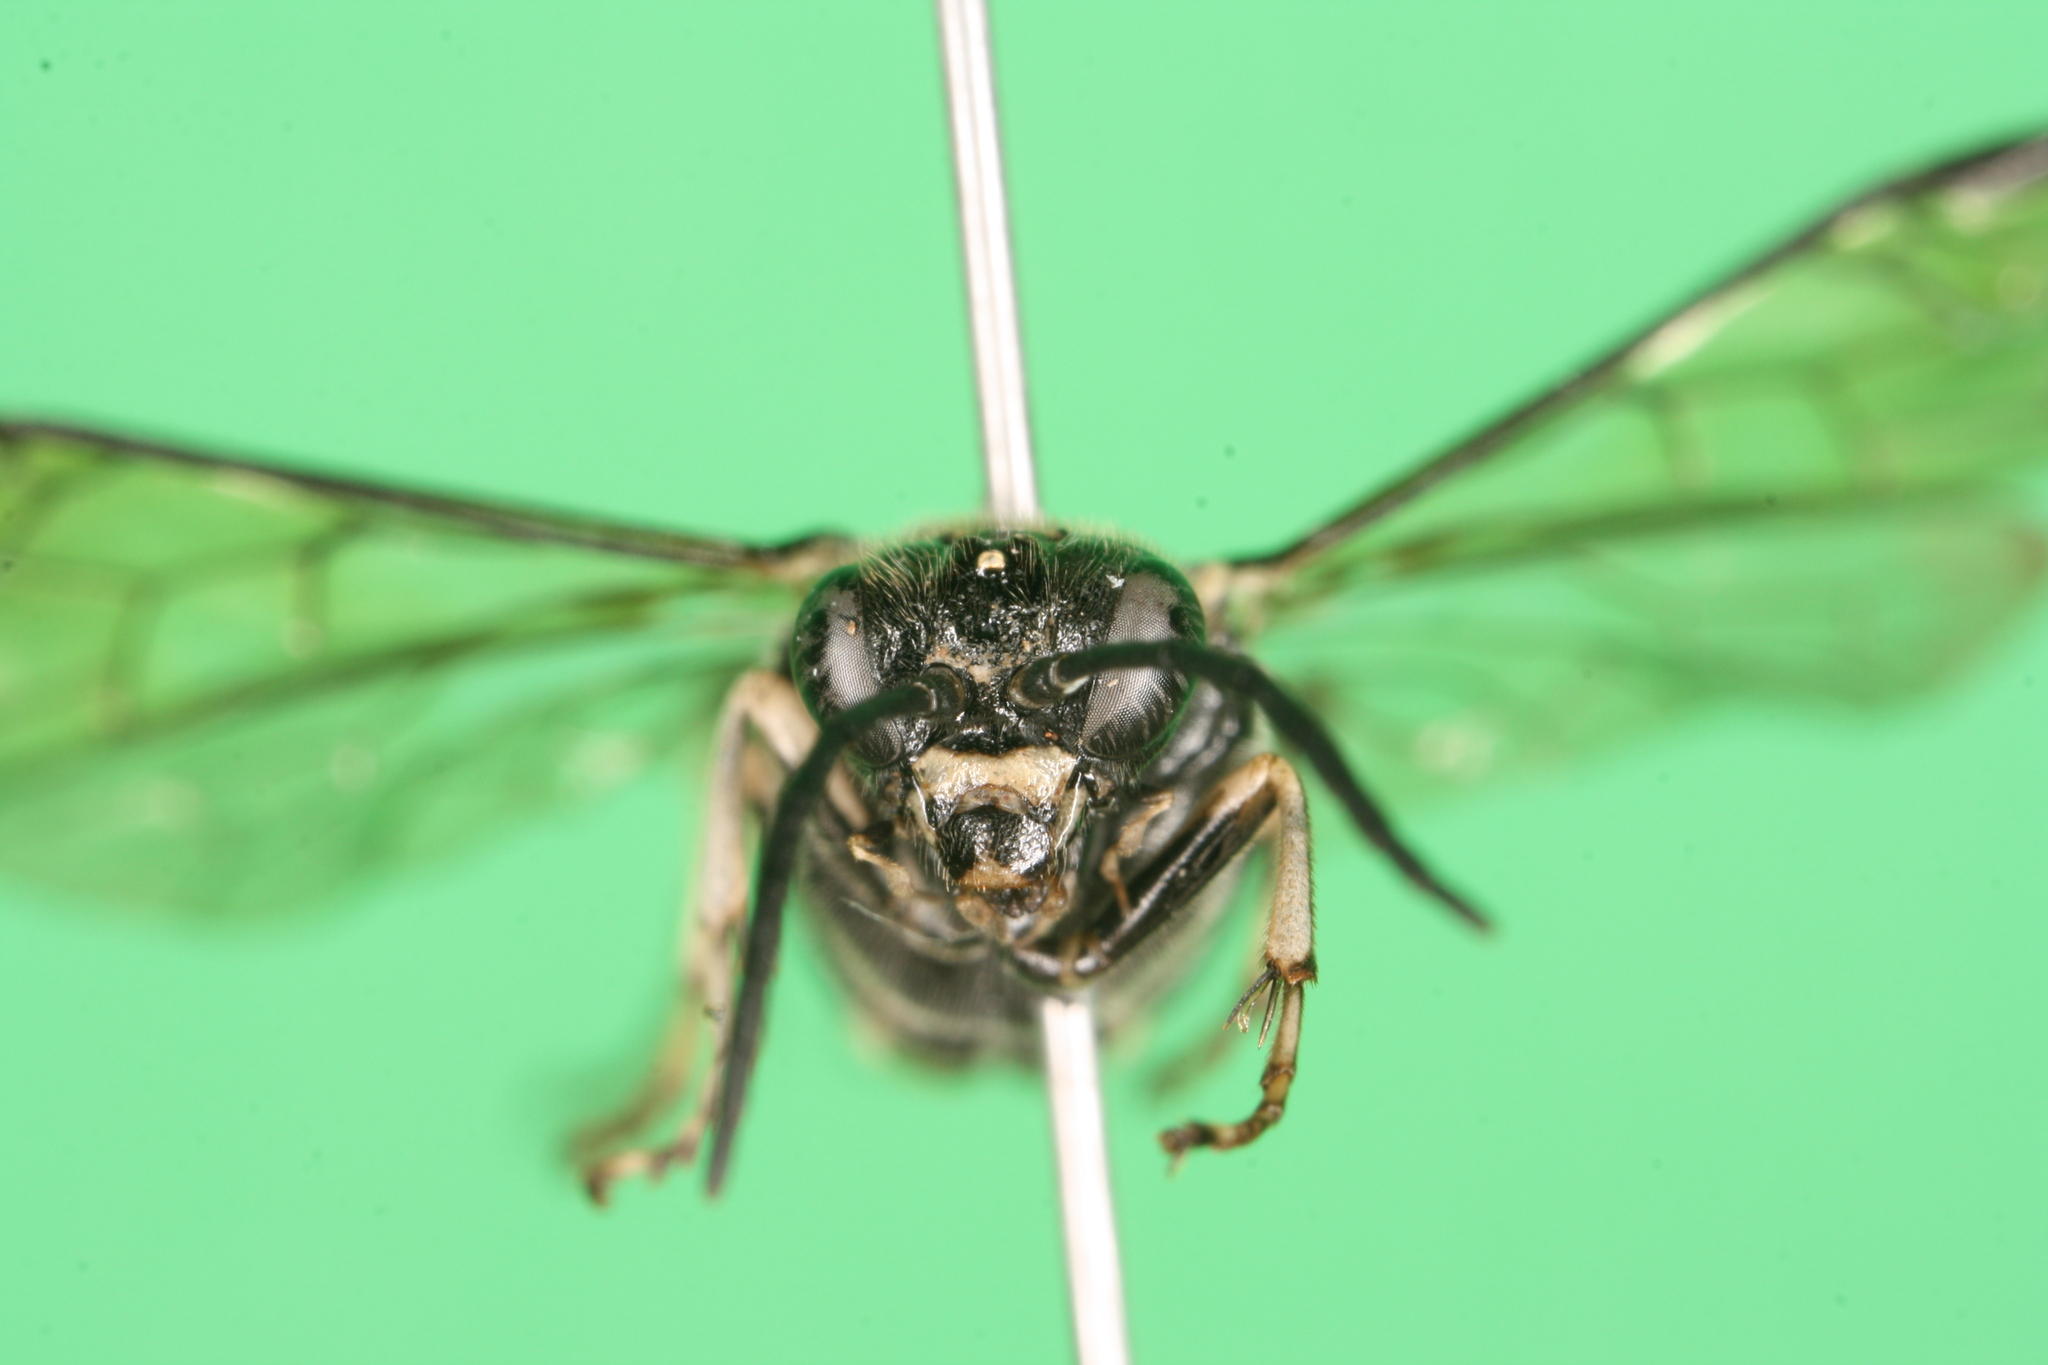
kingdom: Animalia
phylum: Arthropoda
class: Insecta
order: Hymenoptera
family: Tenthredinidae
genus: Macrophya
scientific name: Macrophya alboannulata
